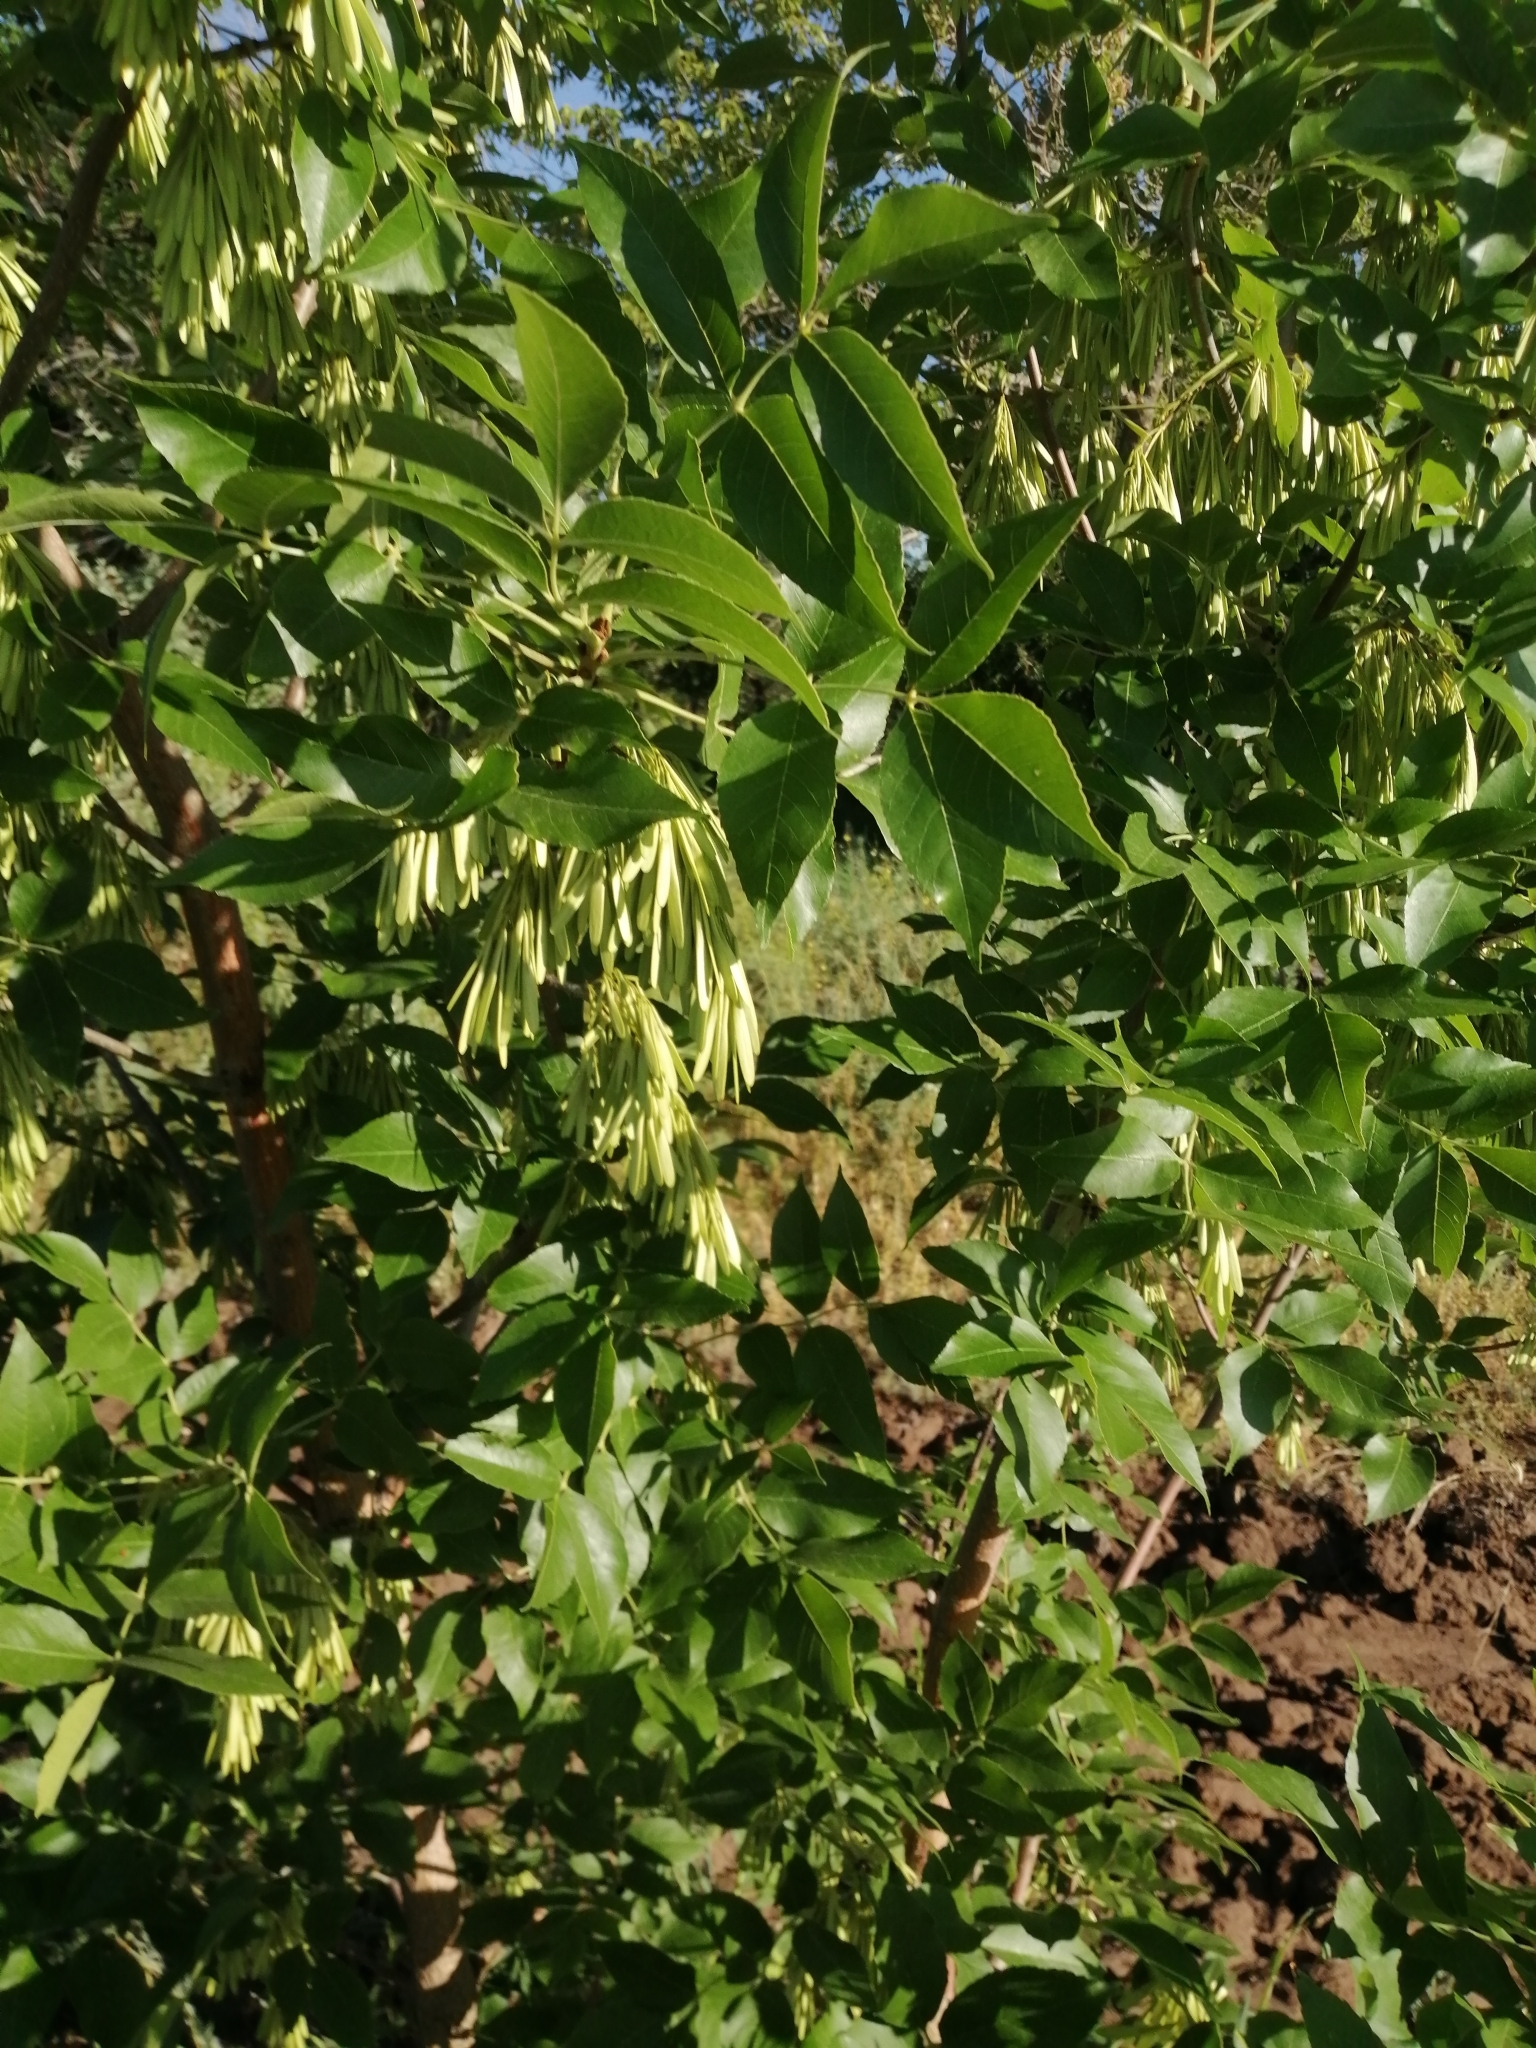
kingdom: Plantae
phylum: Tracheophyta
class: Magnoliopsida
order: Lamiales
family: Oleaceae
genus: Fraxinus
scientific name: Fraxinus pennsylvanica
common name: Green ash
